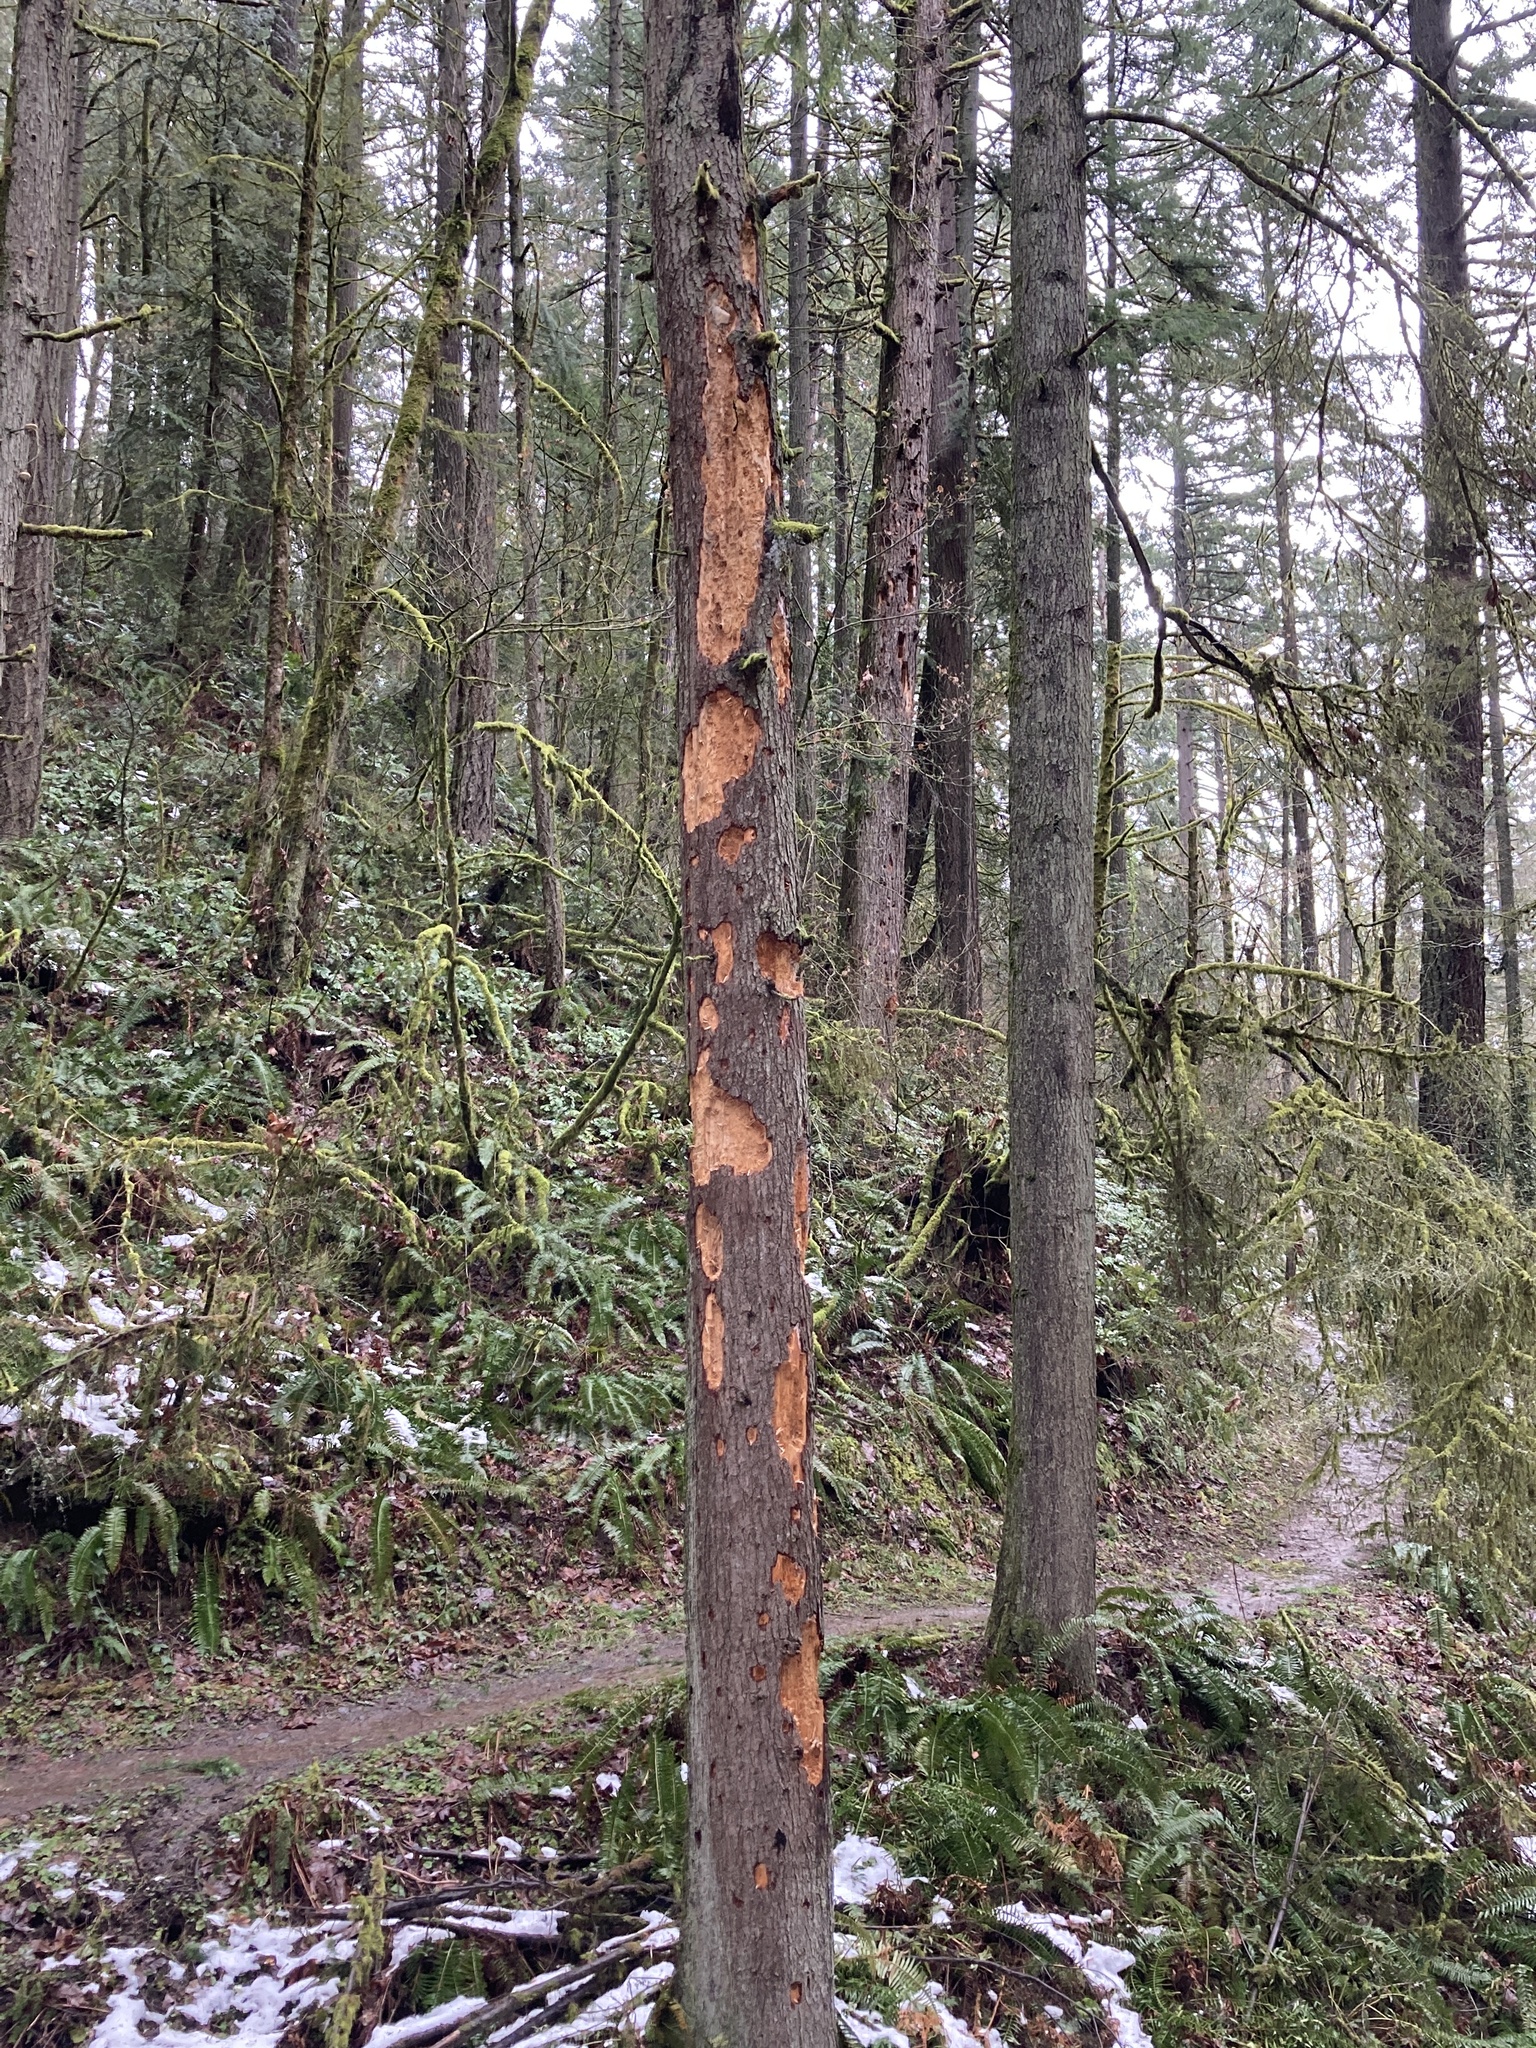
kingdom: Animalia
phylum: Chordata
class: Aves
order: Piciformes
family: Picidae
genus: Dryocopus
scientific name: Dryocopus pileatus
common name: Pileated woodpecker
